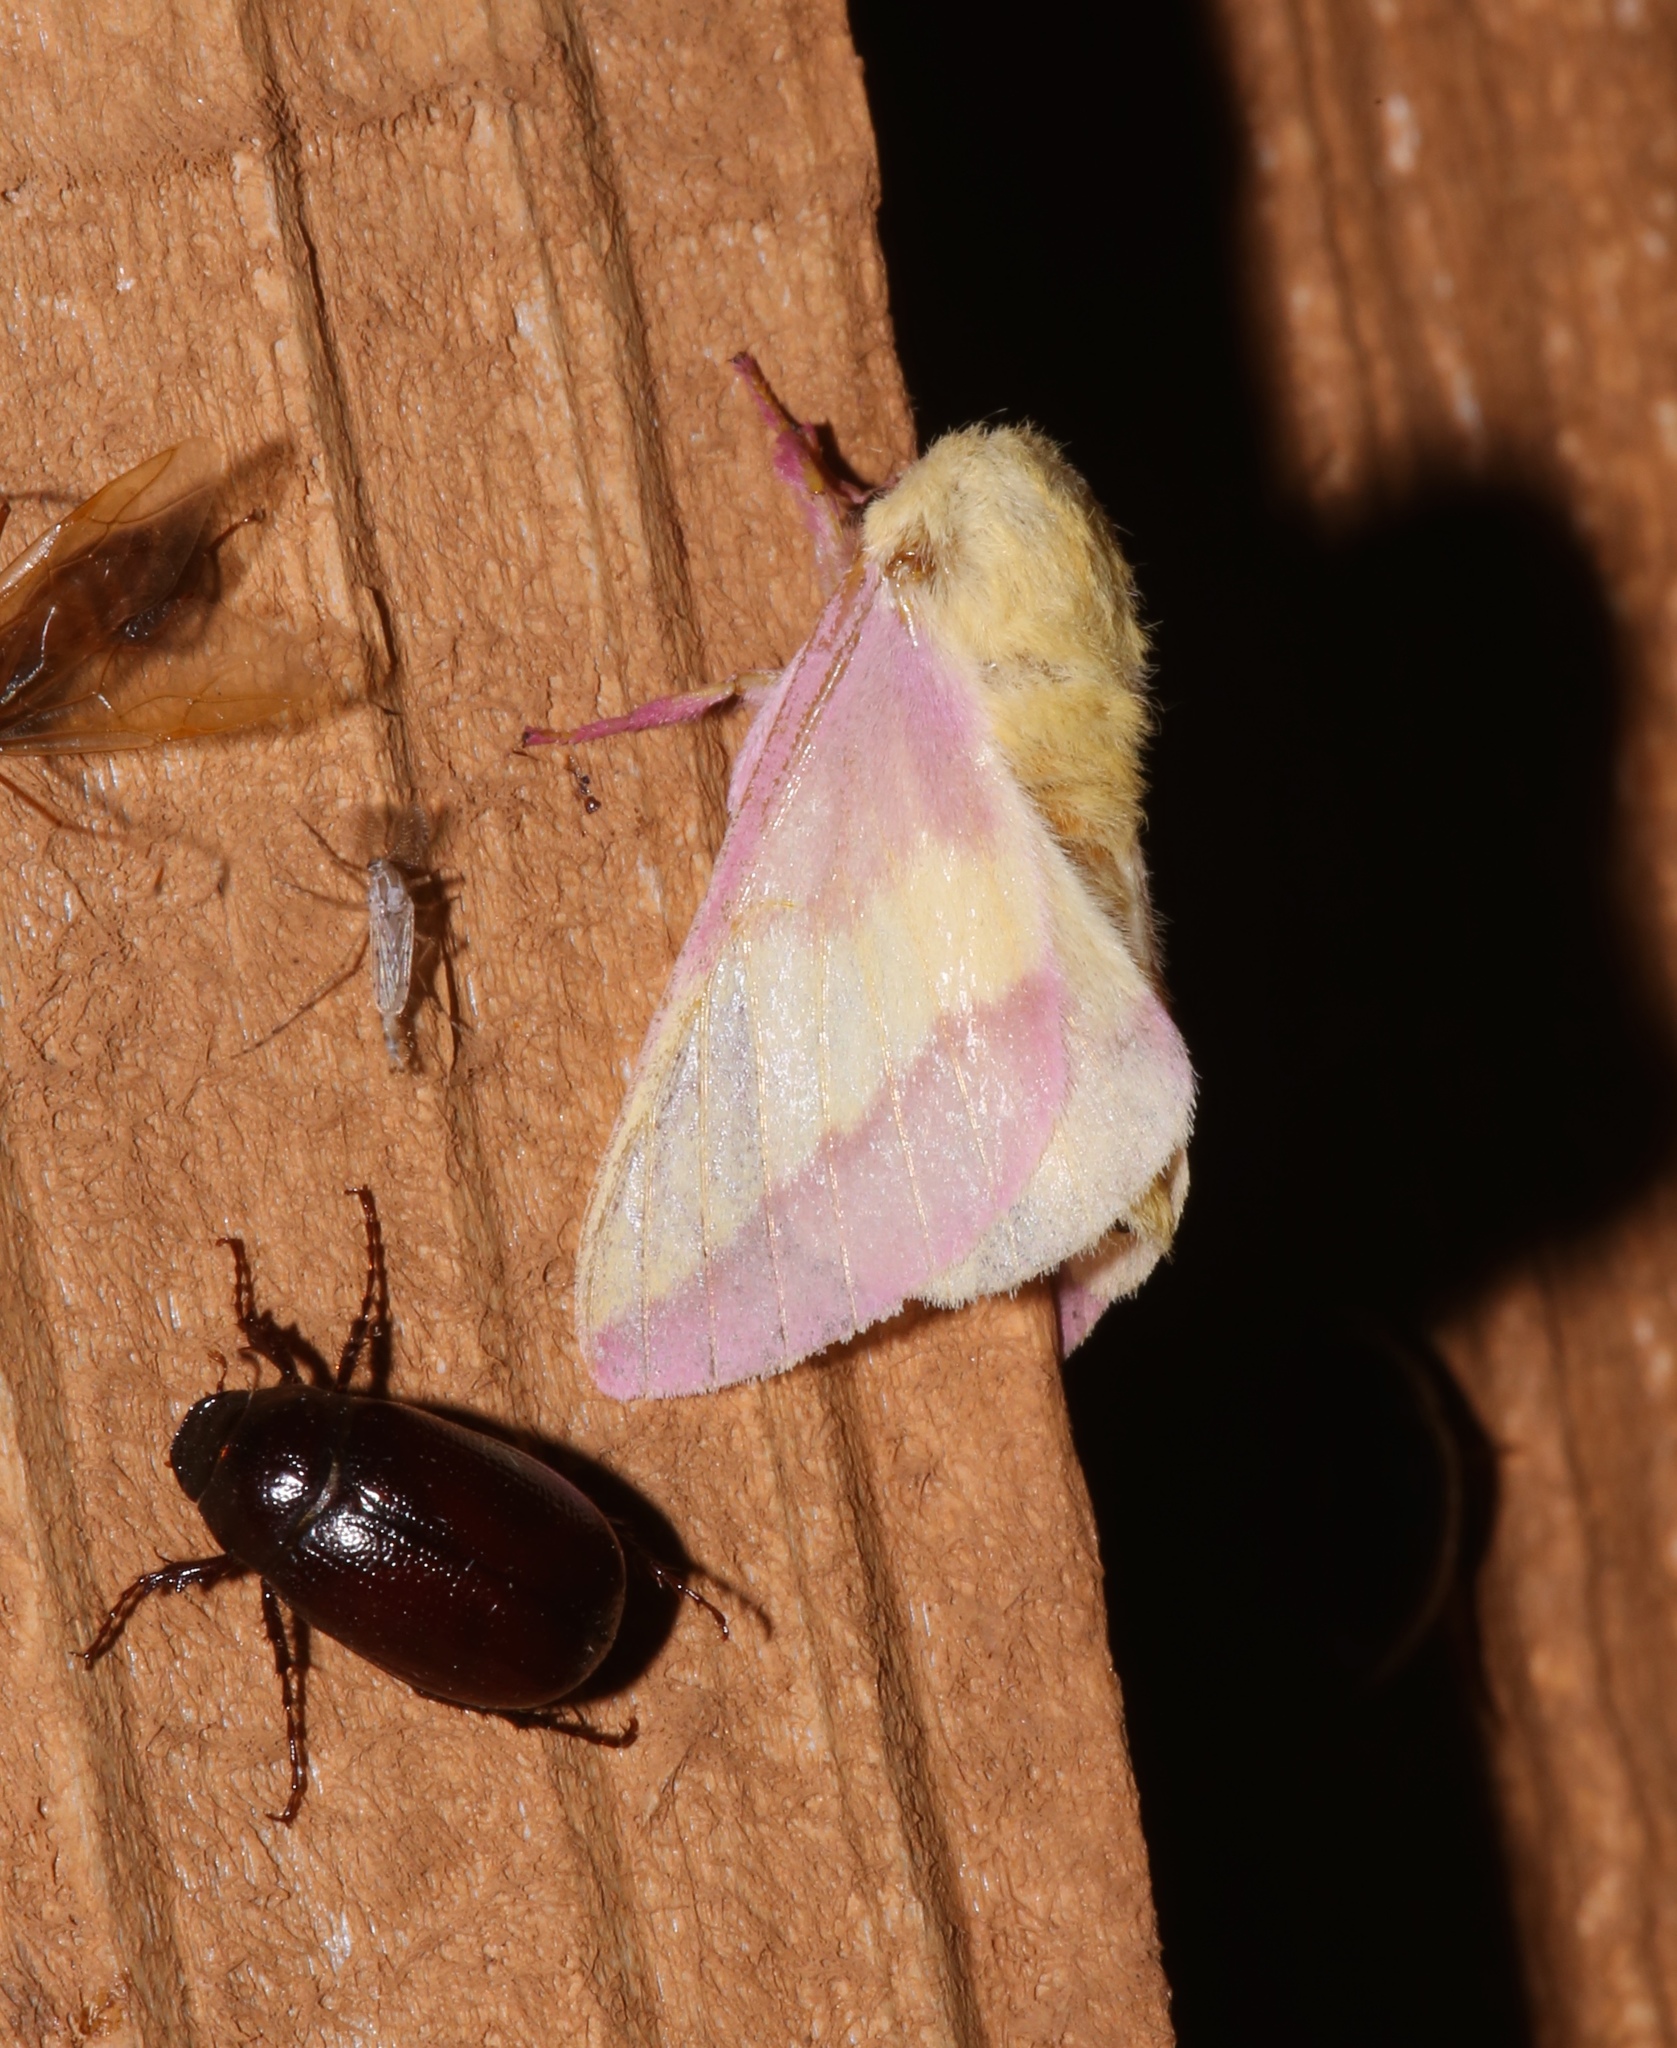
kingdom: Animalia
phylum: Arthropoda
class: Insecta
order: Lepidoptera
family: Saturniidae
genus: Dryocampa
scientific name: Dryocampa rubicunda
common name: Rosy maple moth
